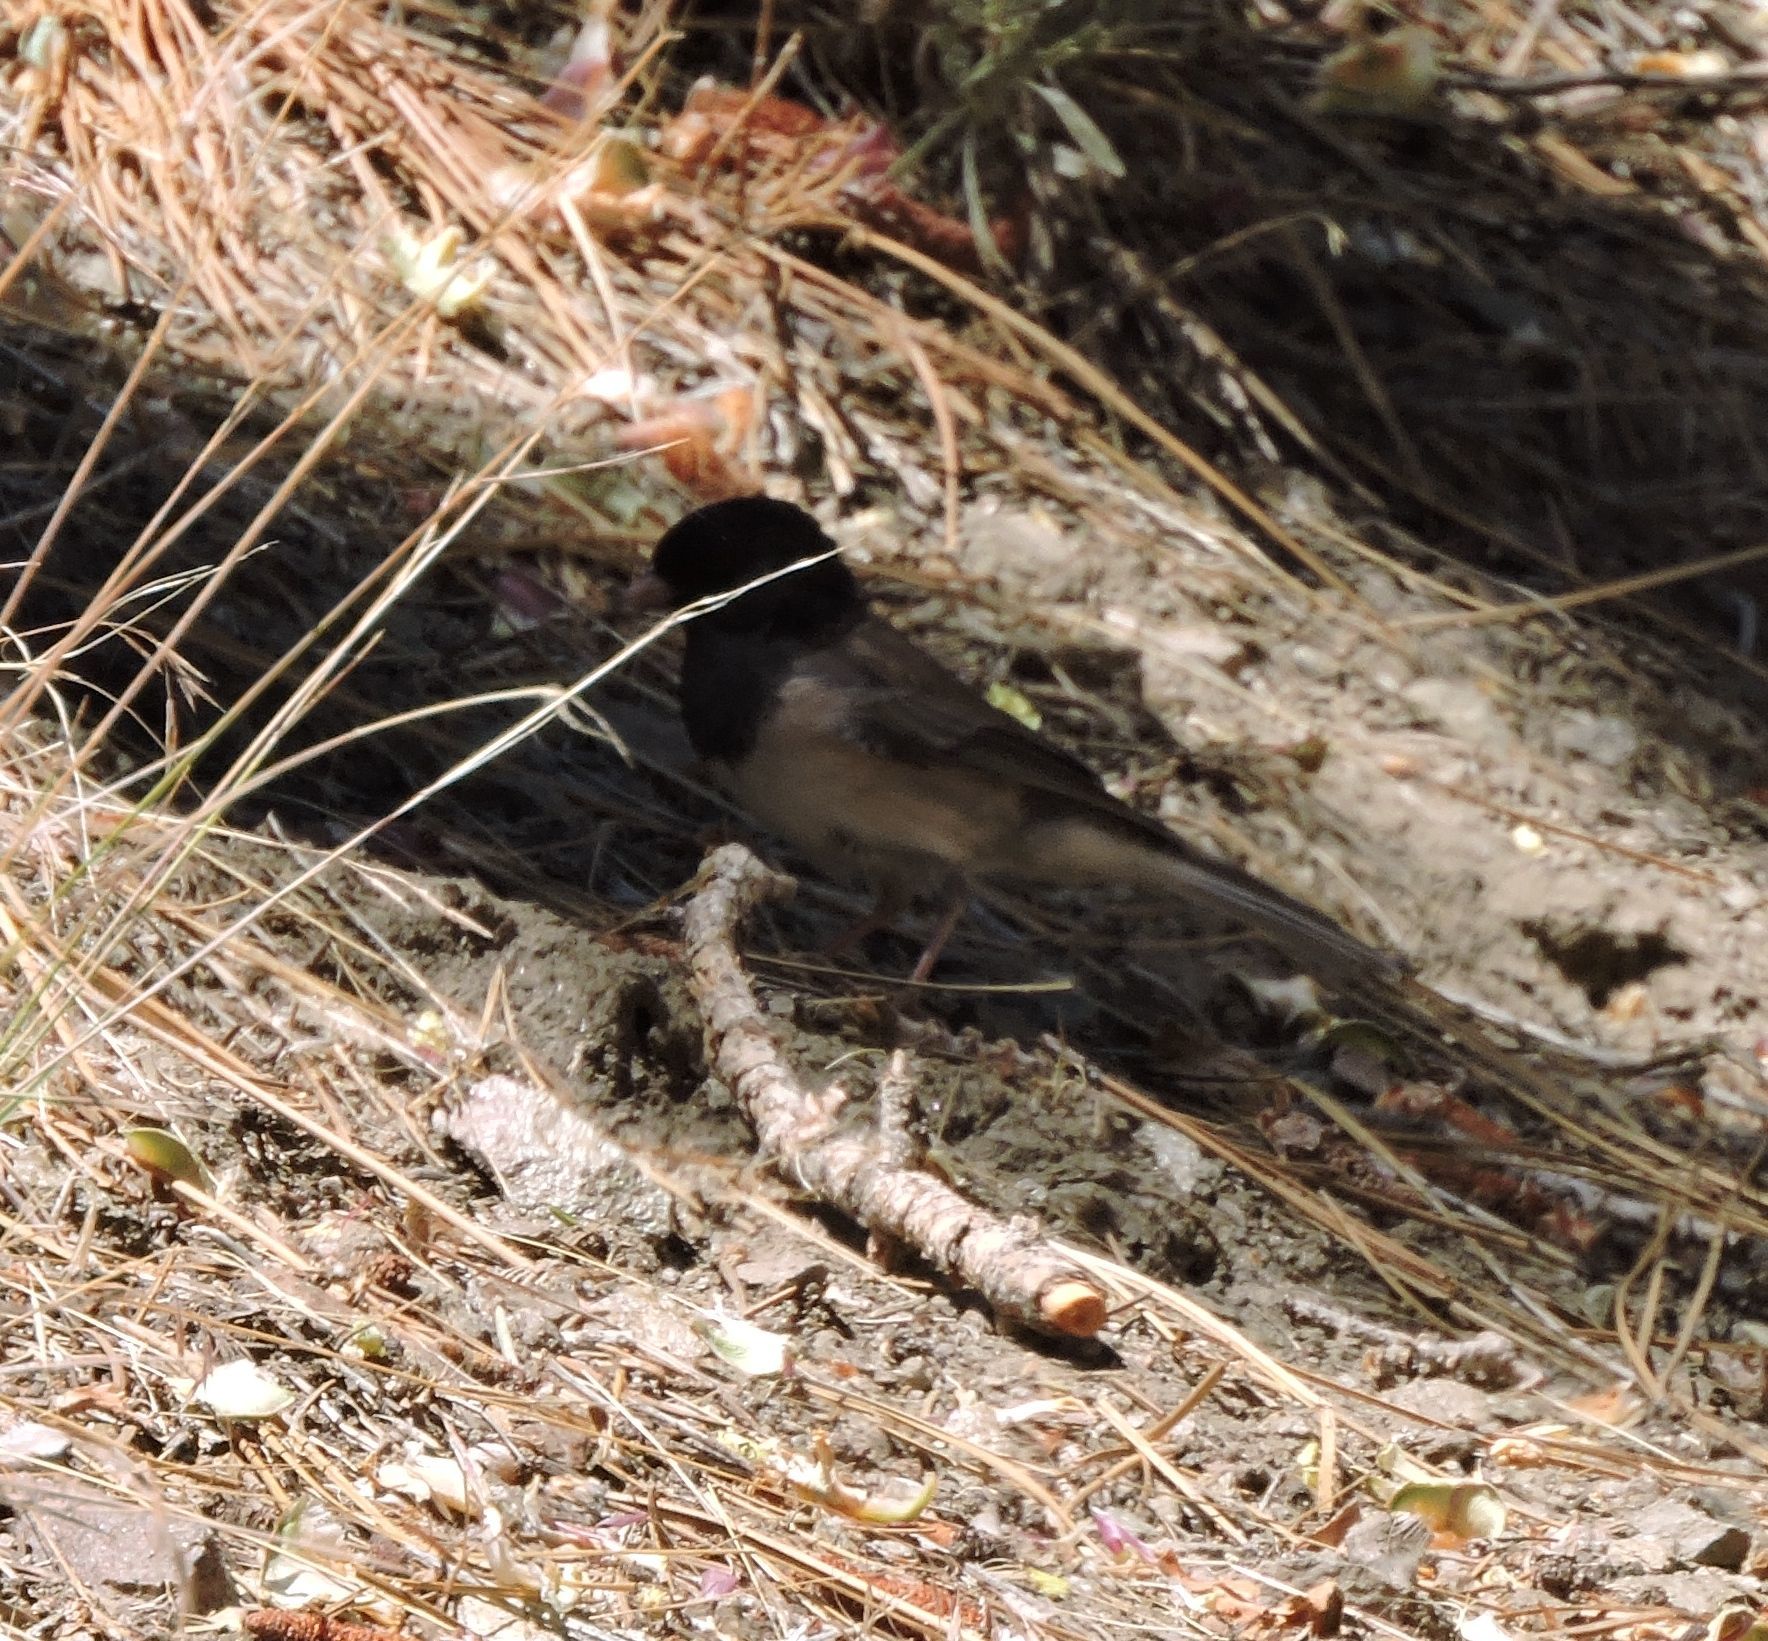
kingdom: Animalia
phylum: Chordata
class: Aves
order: Passeriformes
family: Passerellidae
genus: Junco
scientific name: Junco hyemalis
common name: Dark-eyed junco
